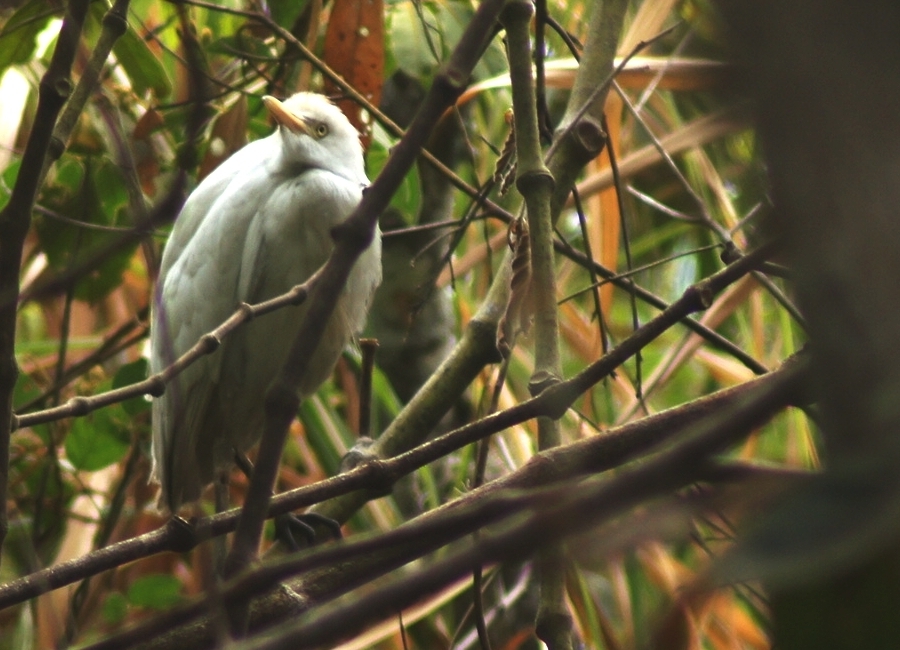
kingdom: Animalia
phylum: Chordata
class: Aves
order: Pelecaniformes
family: Ardeidae
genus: Bubulcus
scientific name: Bubulcus ibis
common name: Cattle egret
